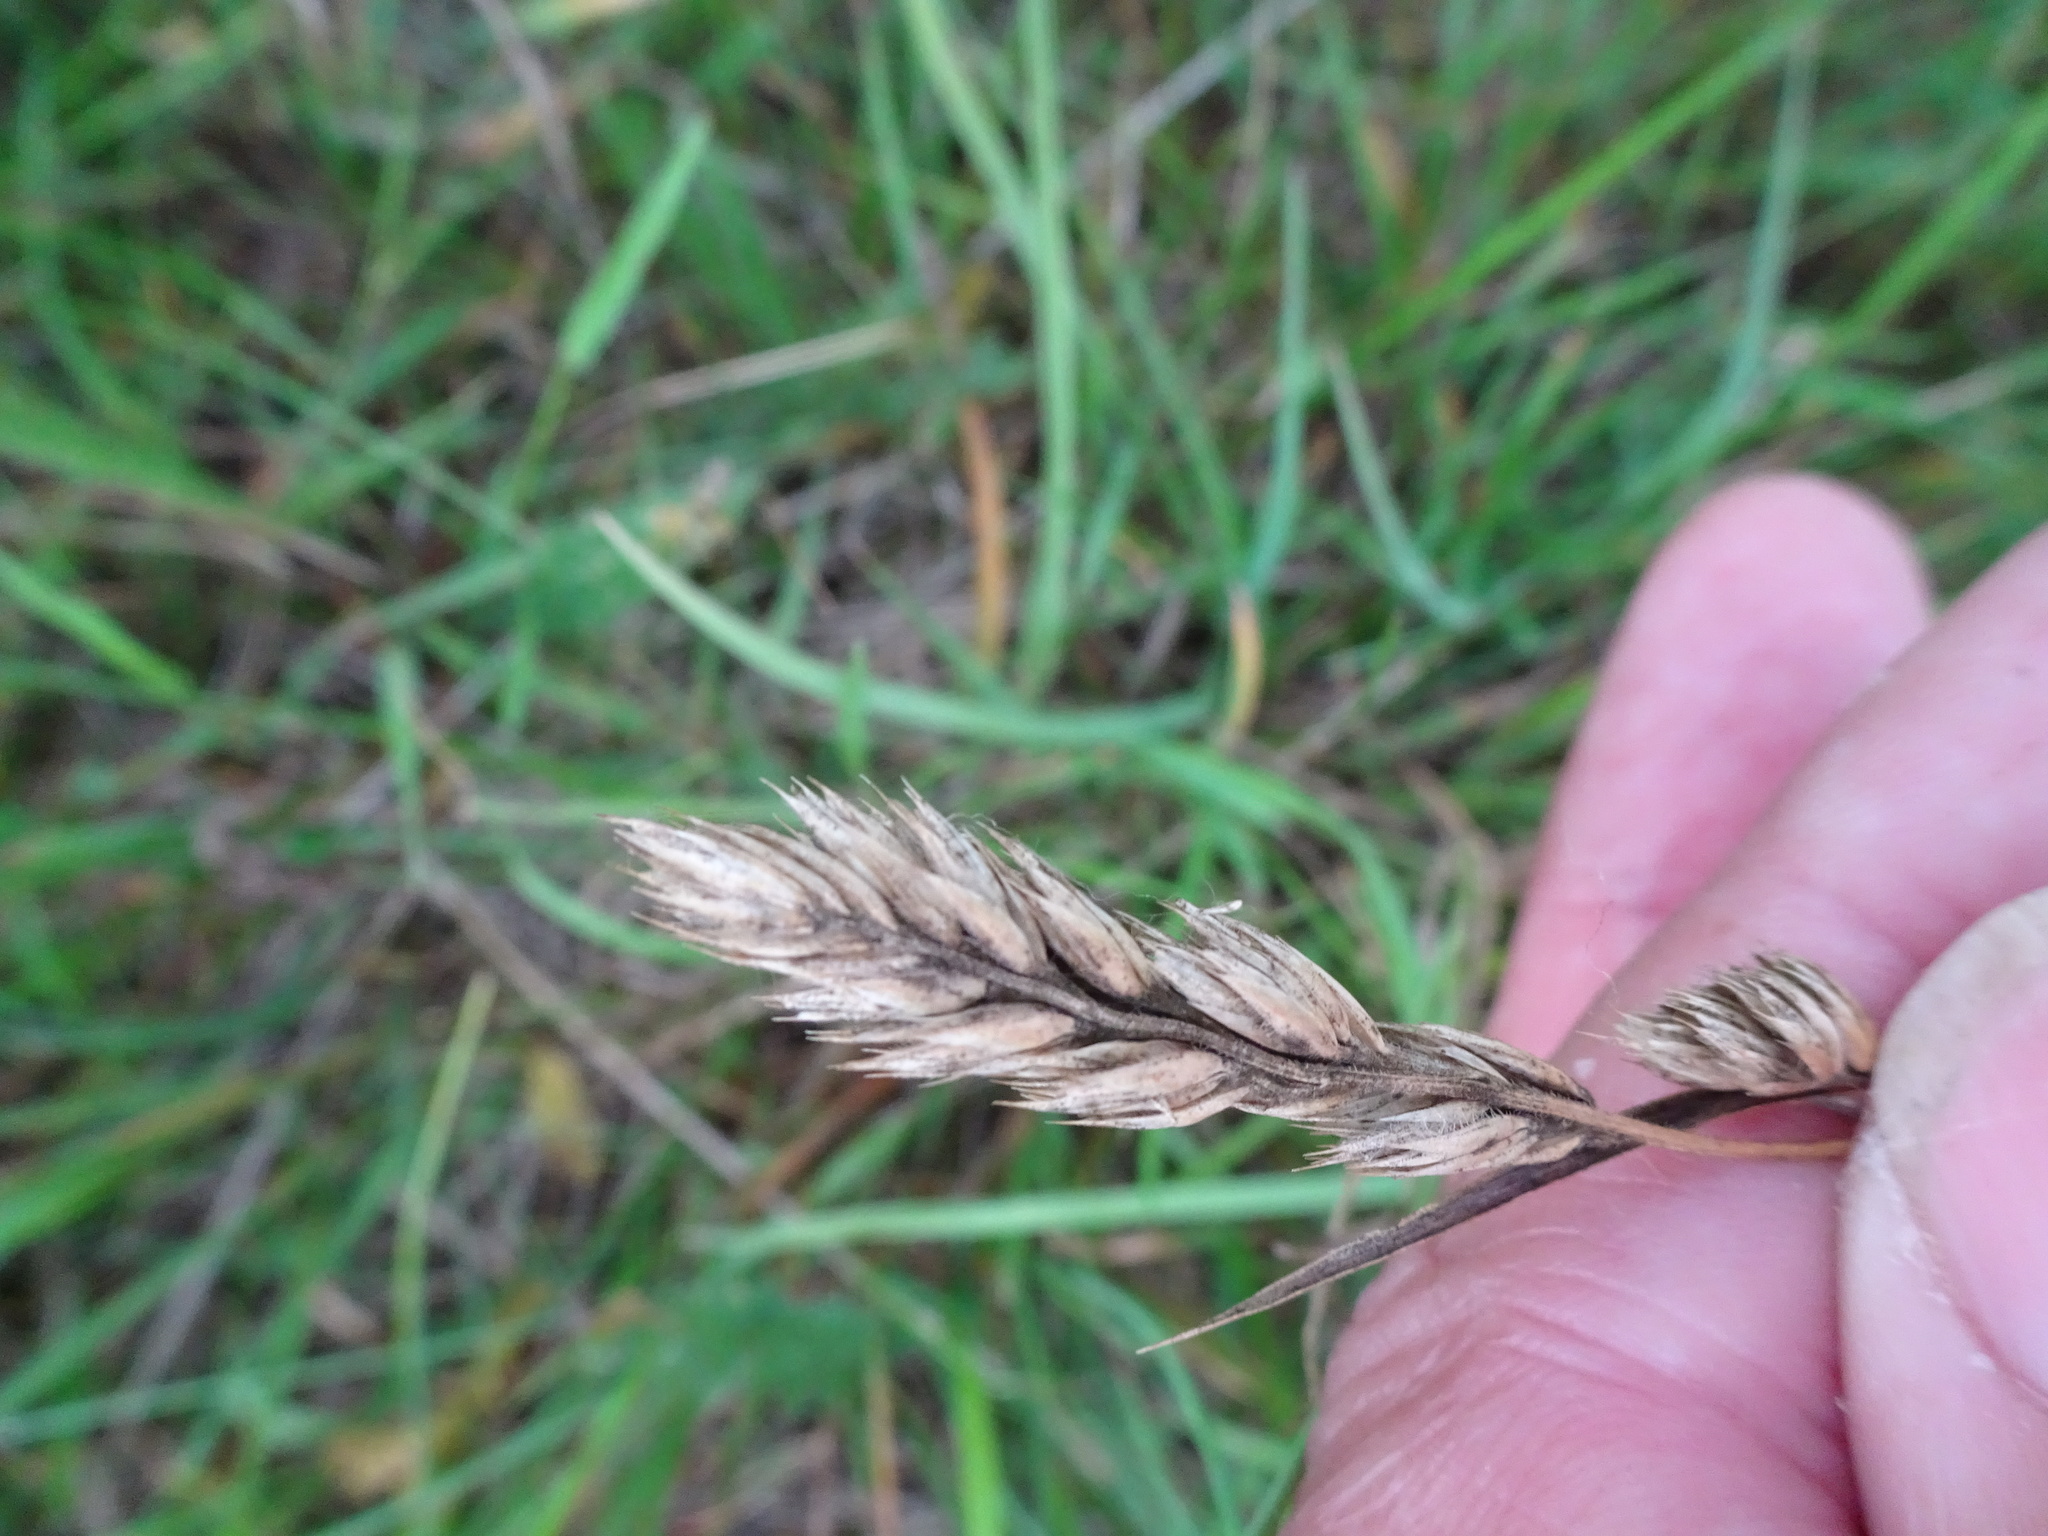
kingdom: Plantae
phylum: Tracheophyta
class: Liliopsida
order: Poales
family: Poaceae
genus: Dactylis
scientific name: Dactylis glomerata
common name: Orchardgrass
